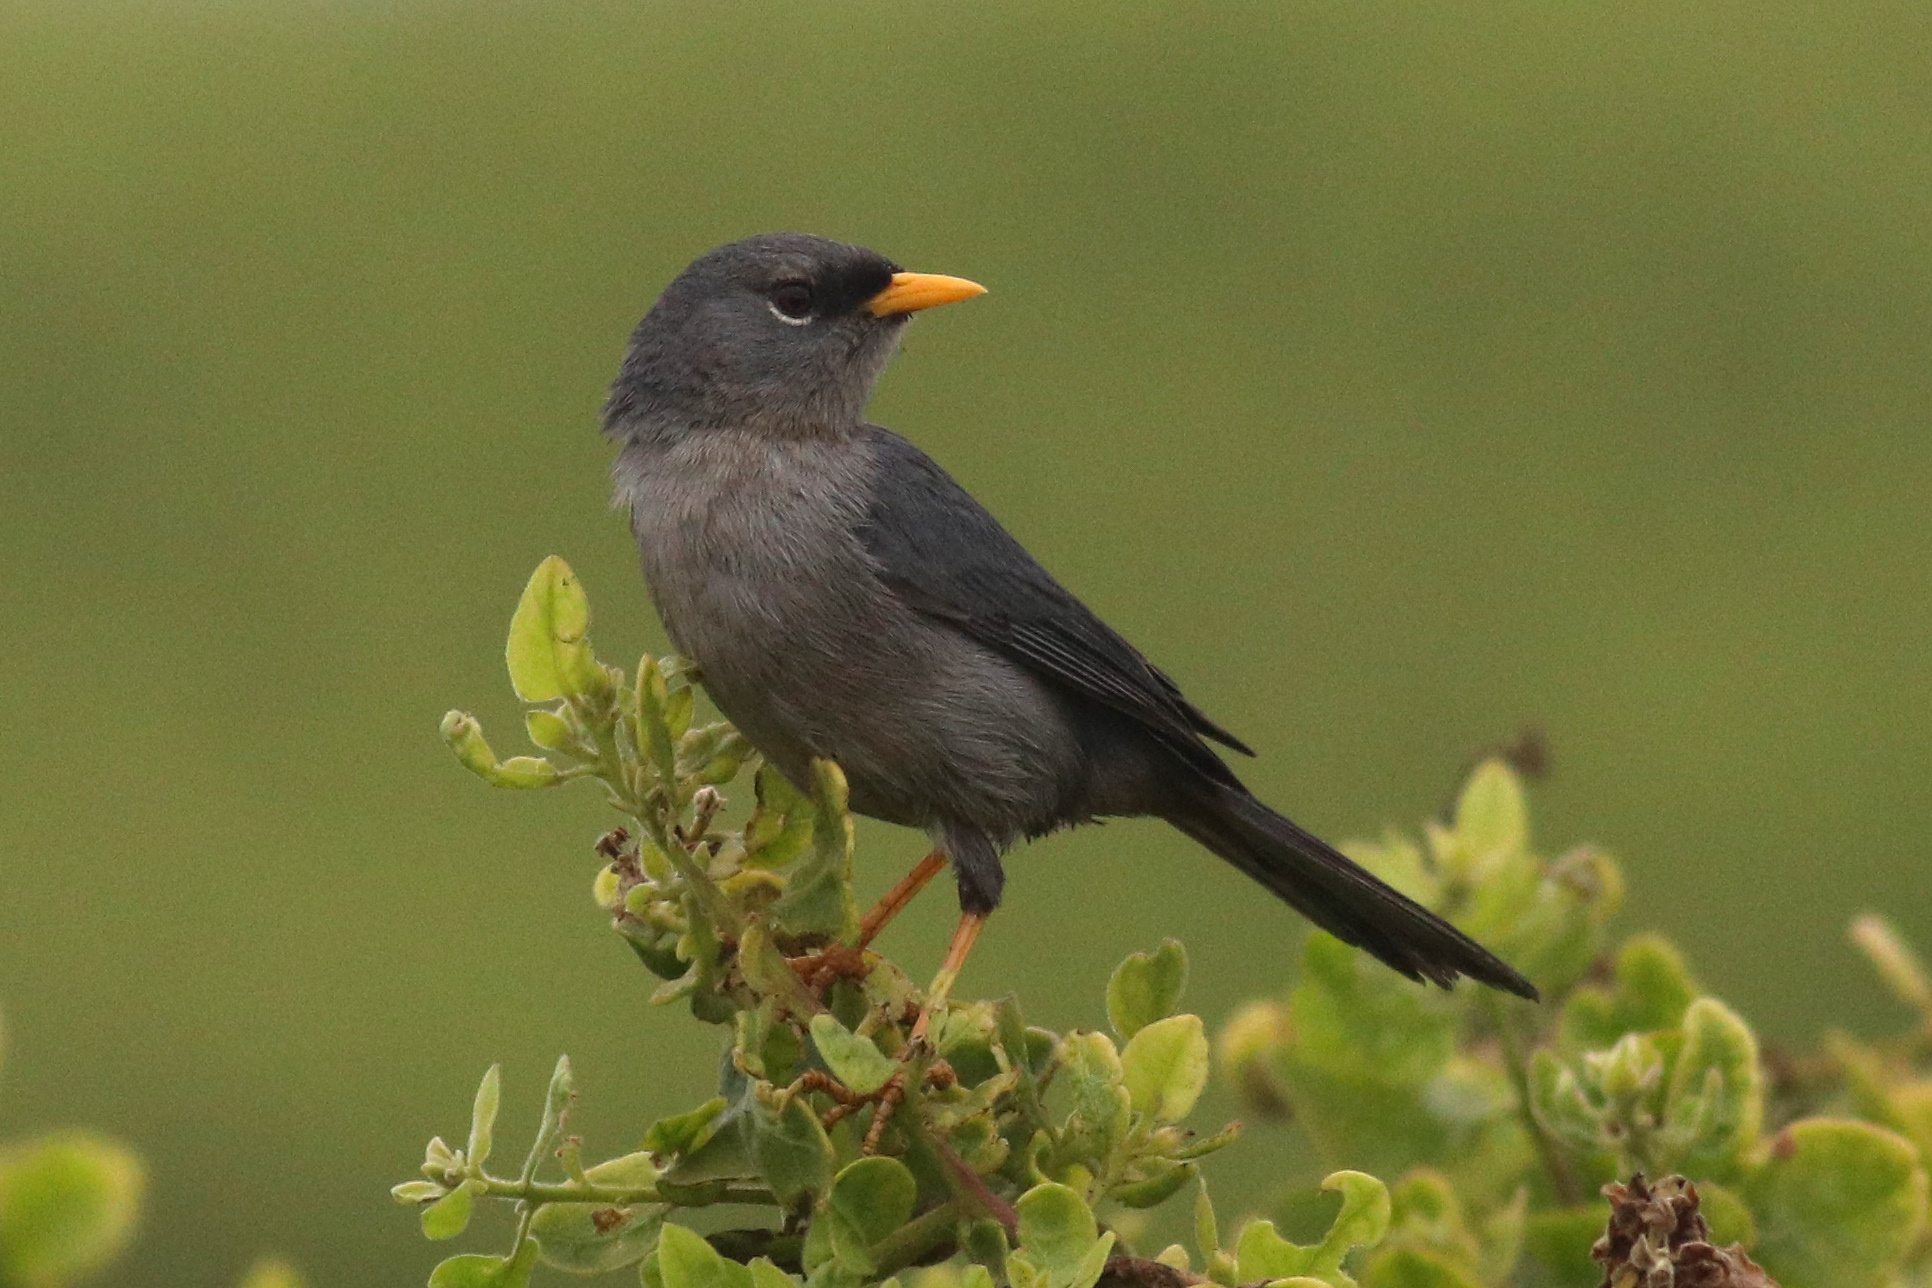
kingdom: Animalia
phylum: Chordata
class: Aves
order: Passeriformes
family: Thraupidae
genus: Xenospingus
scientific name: Xenospingus concolor
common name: Slender-billed finch
